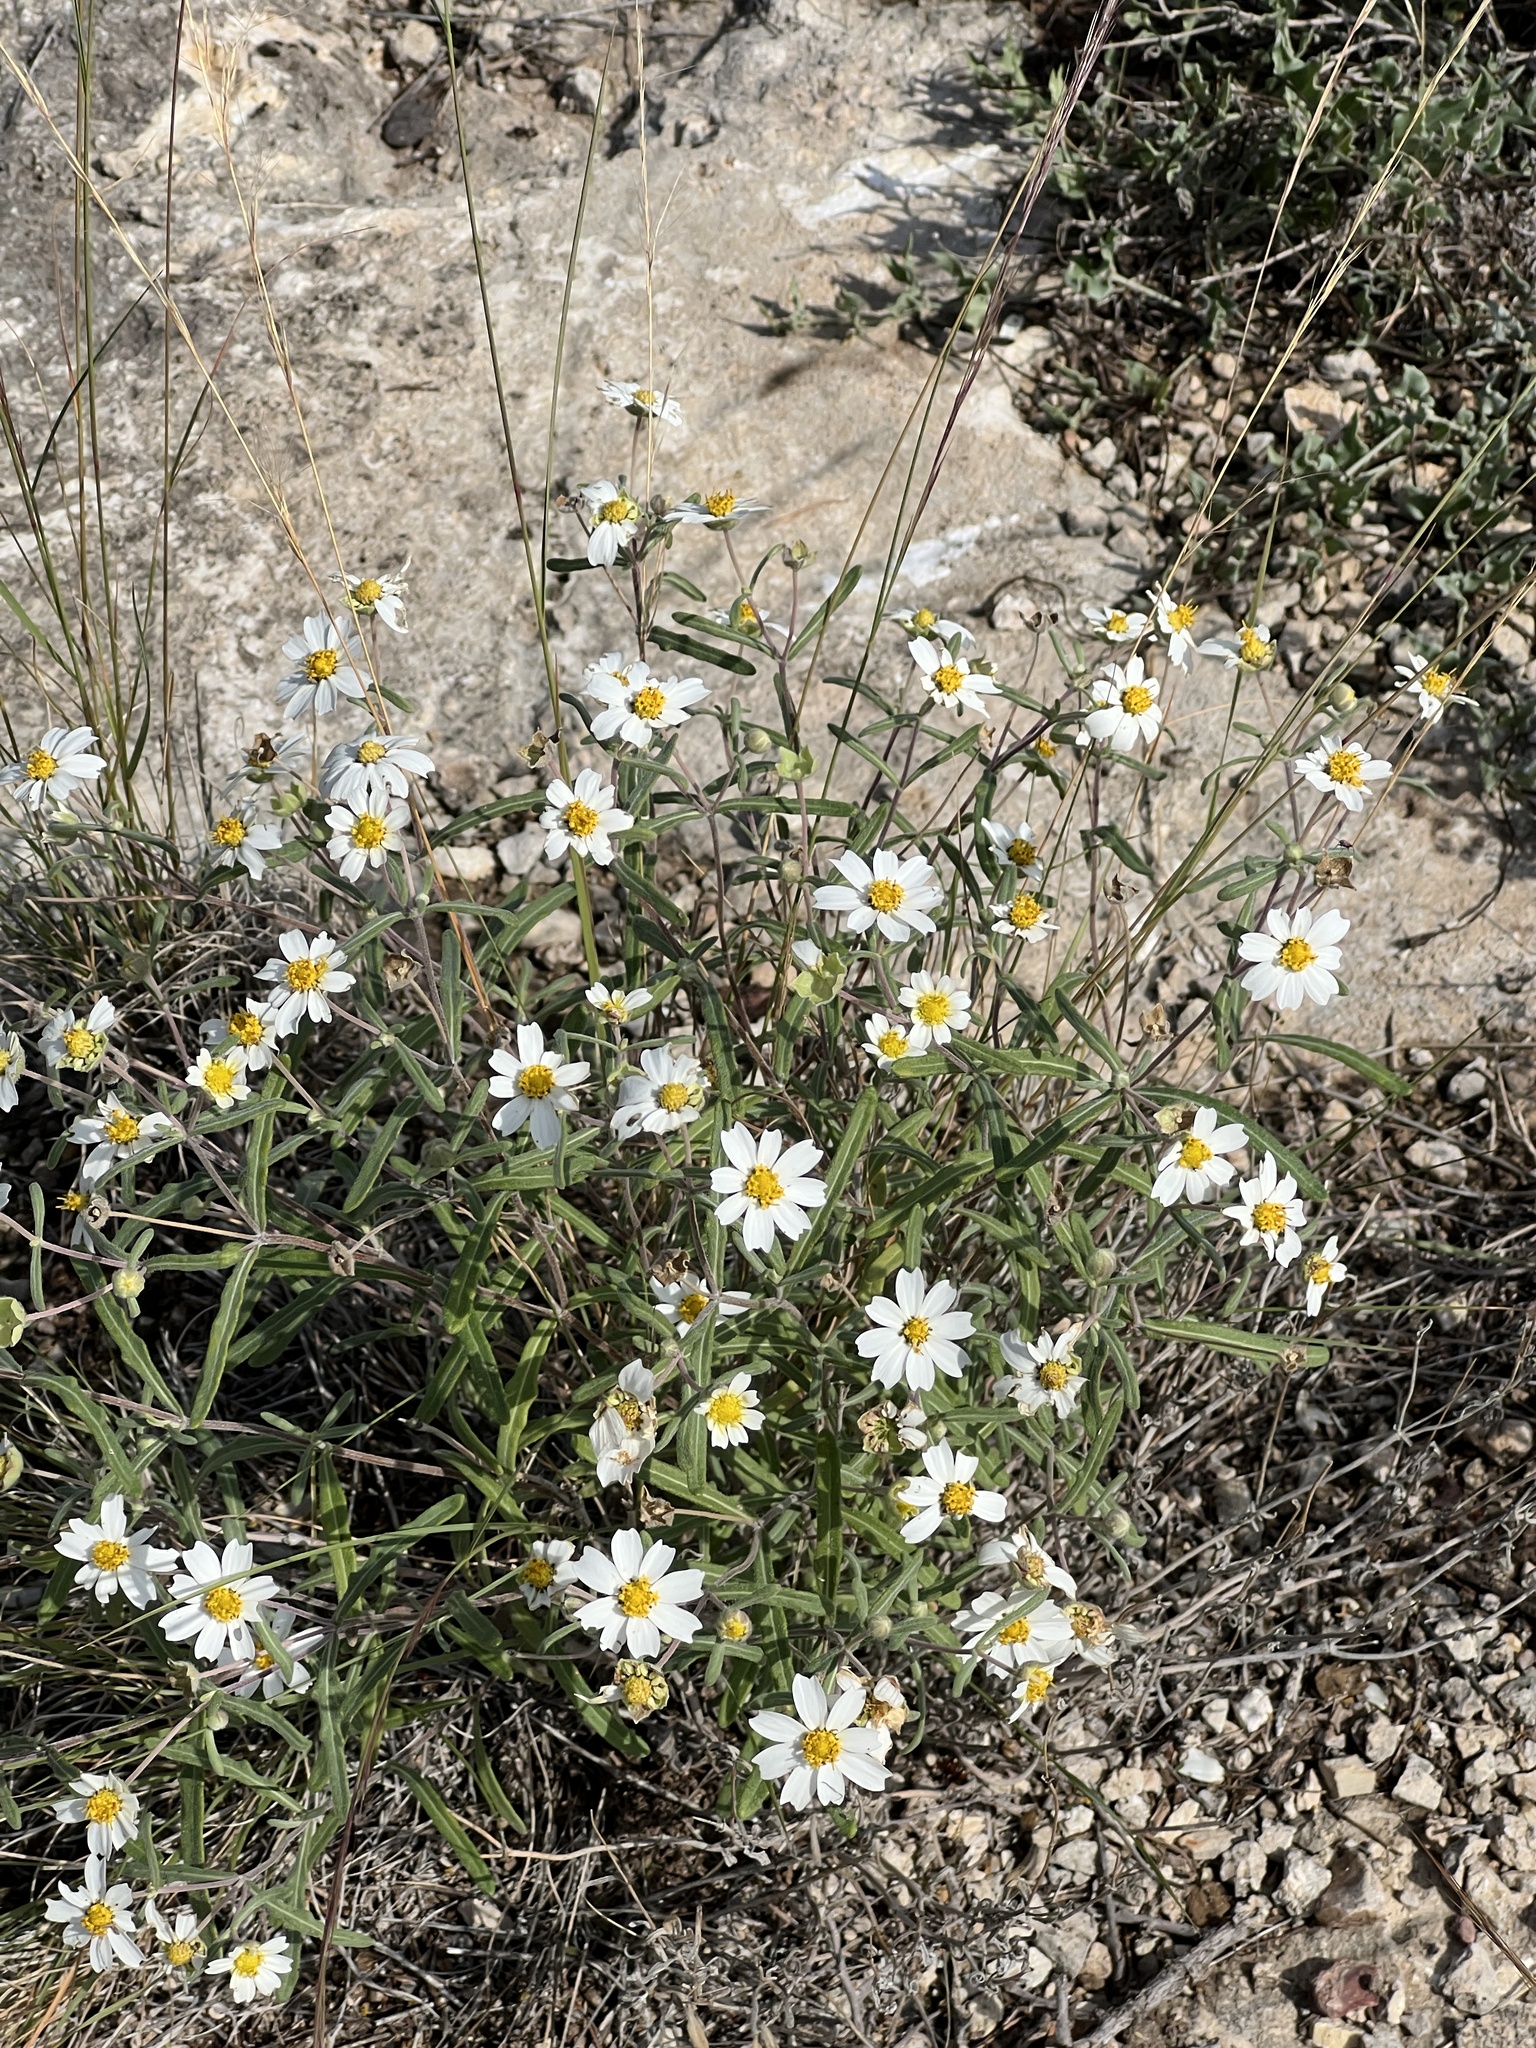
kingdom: Plantae
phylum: Tracheophyta
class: Magnoliopsida
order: Asterales
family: Asteraceae
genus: Melampodium
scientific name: Melampodium leucanthum
